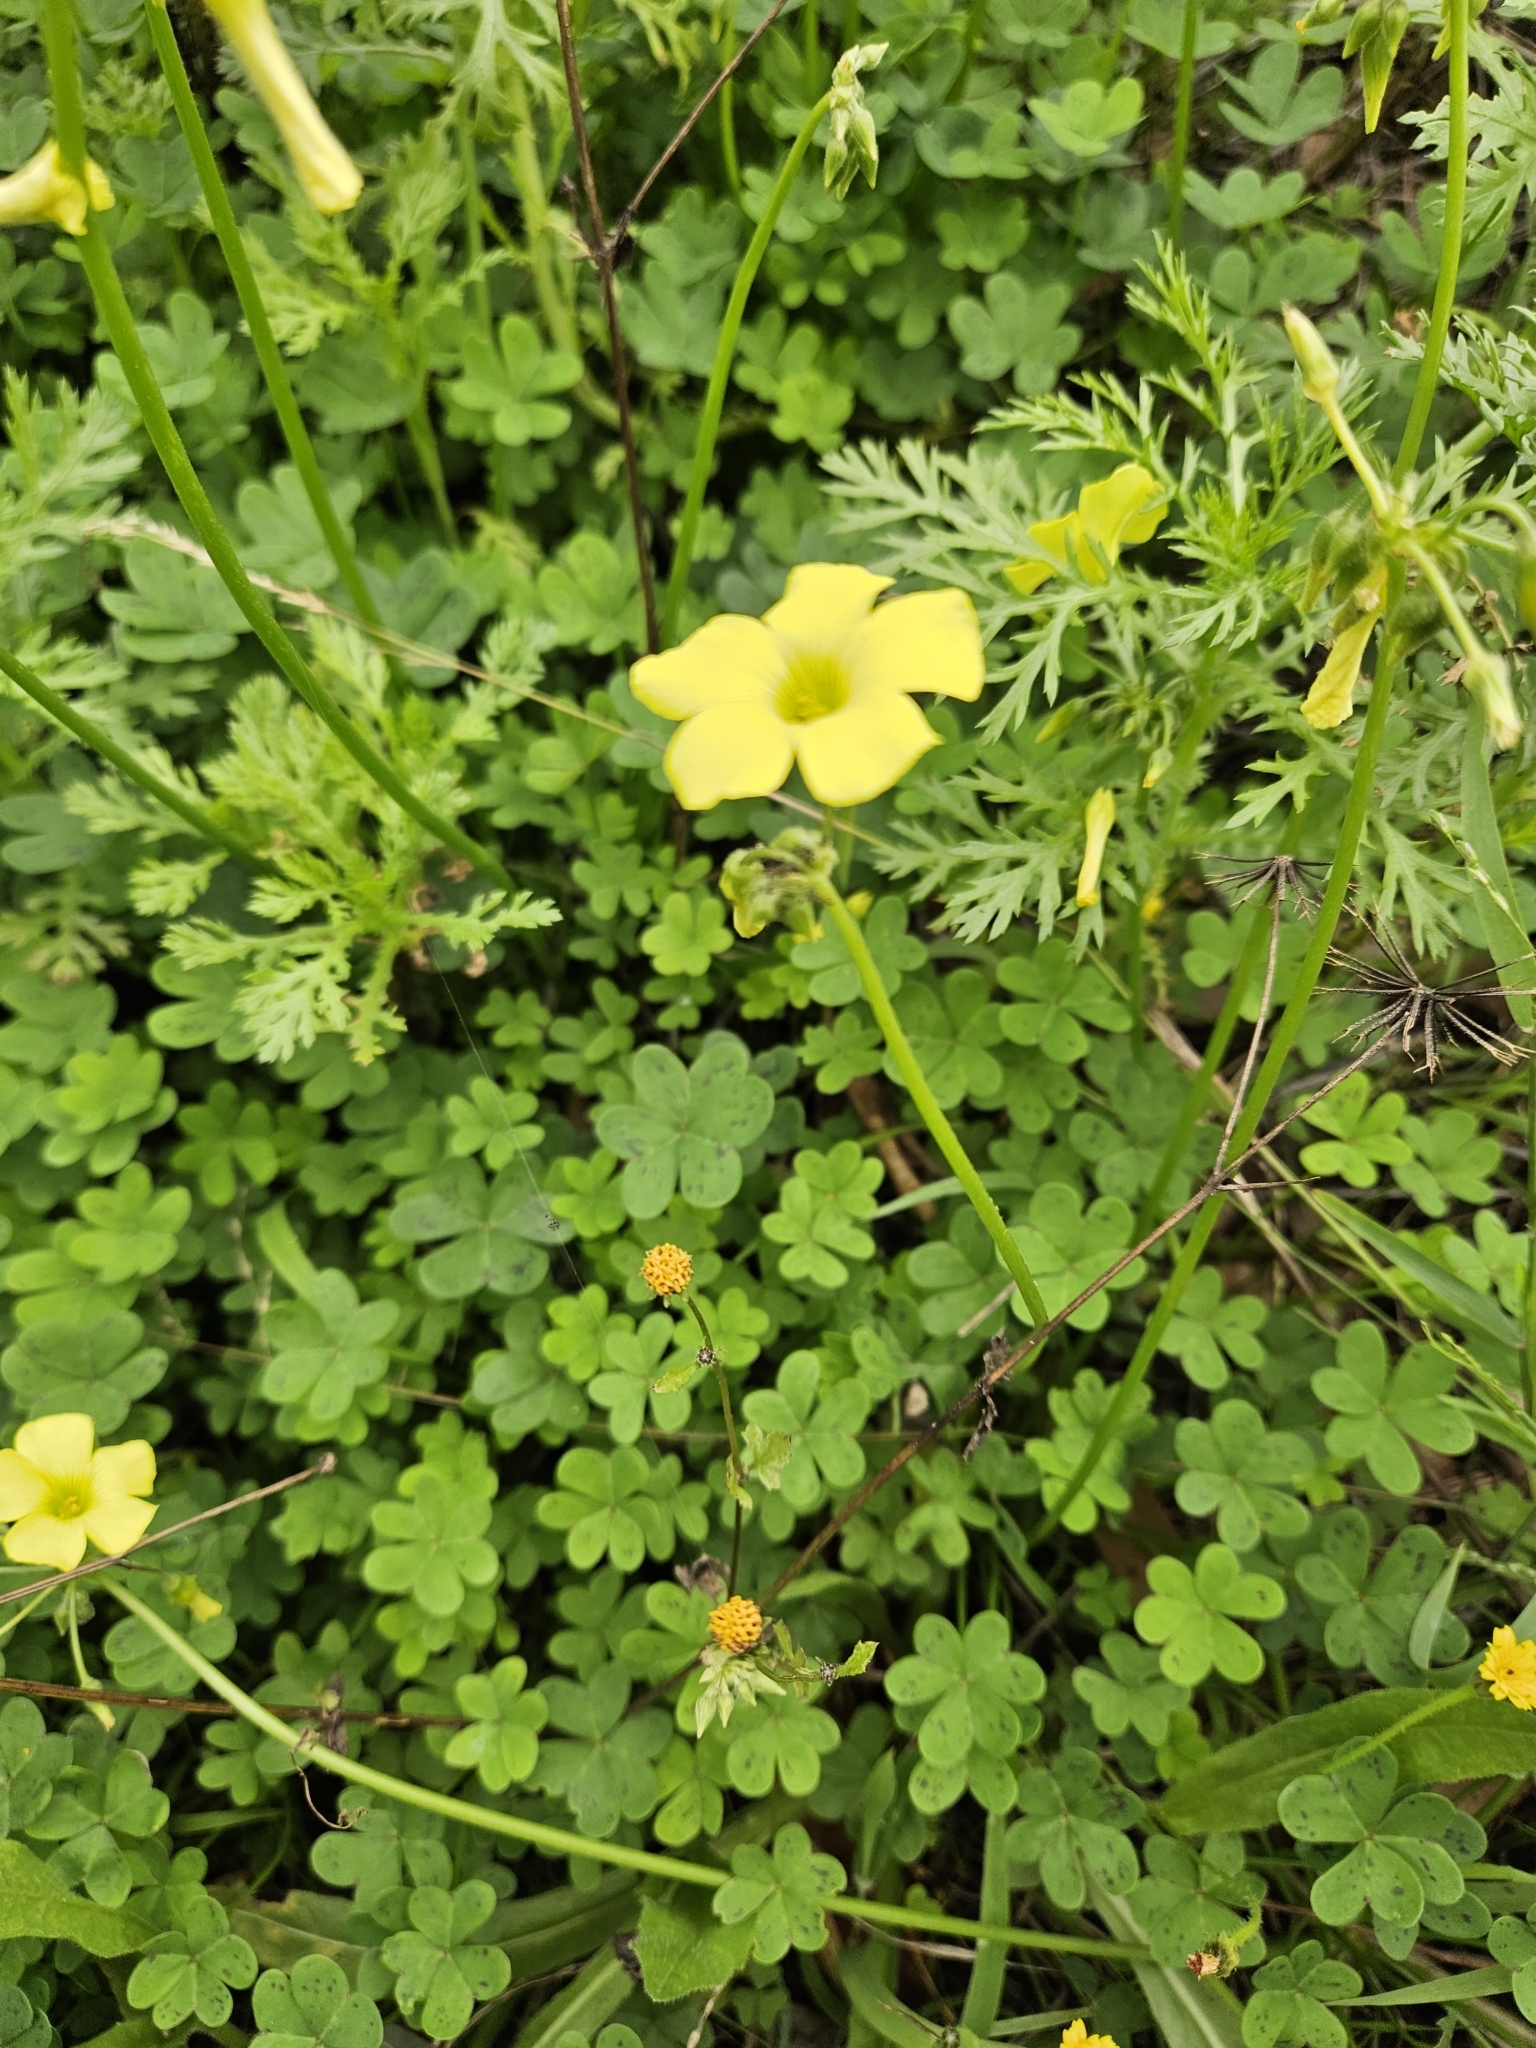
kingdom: Plantae
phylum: Tracheophyta
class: Magnoliopsida
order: Oxalidales
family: Oxalidaceae
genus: Oxalis
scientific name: Oxalis pes-caprae
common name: Bermuda-buttercup
